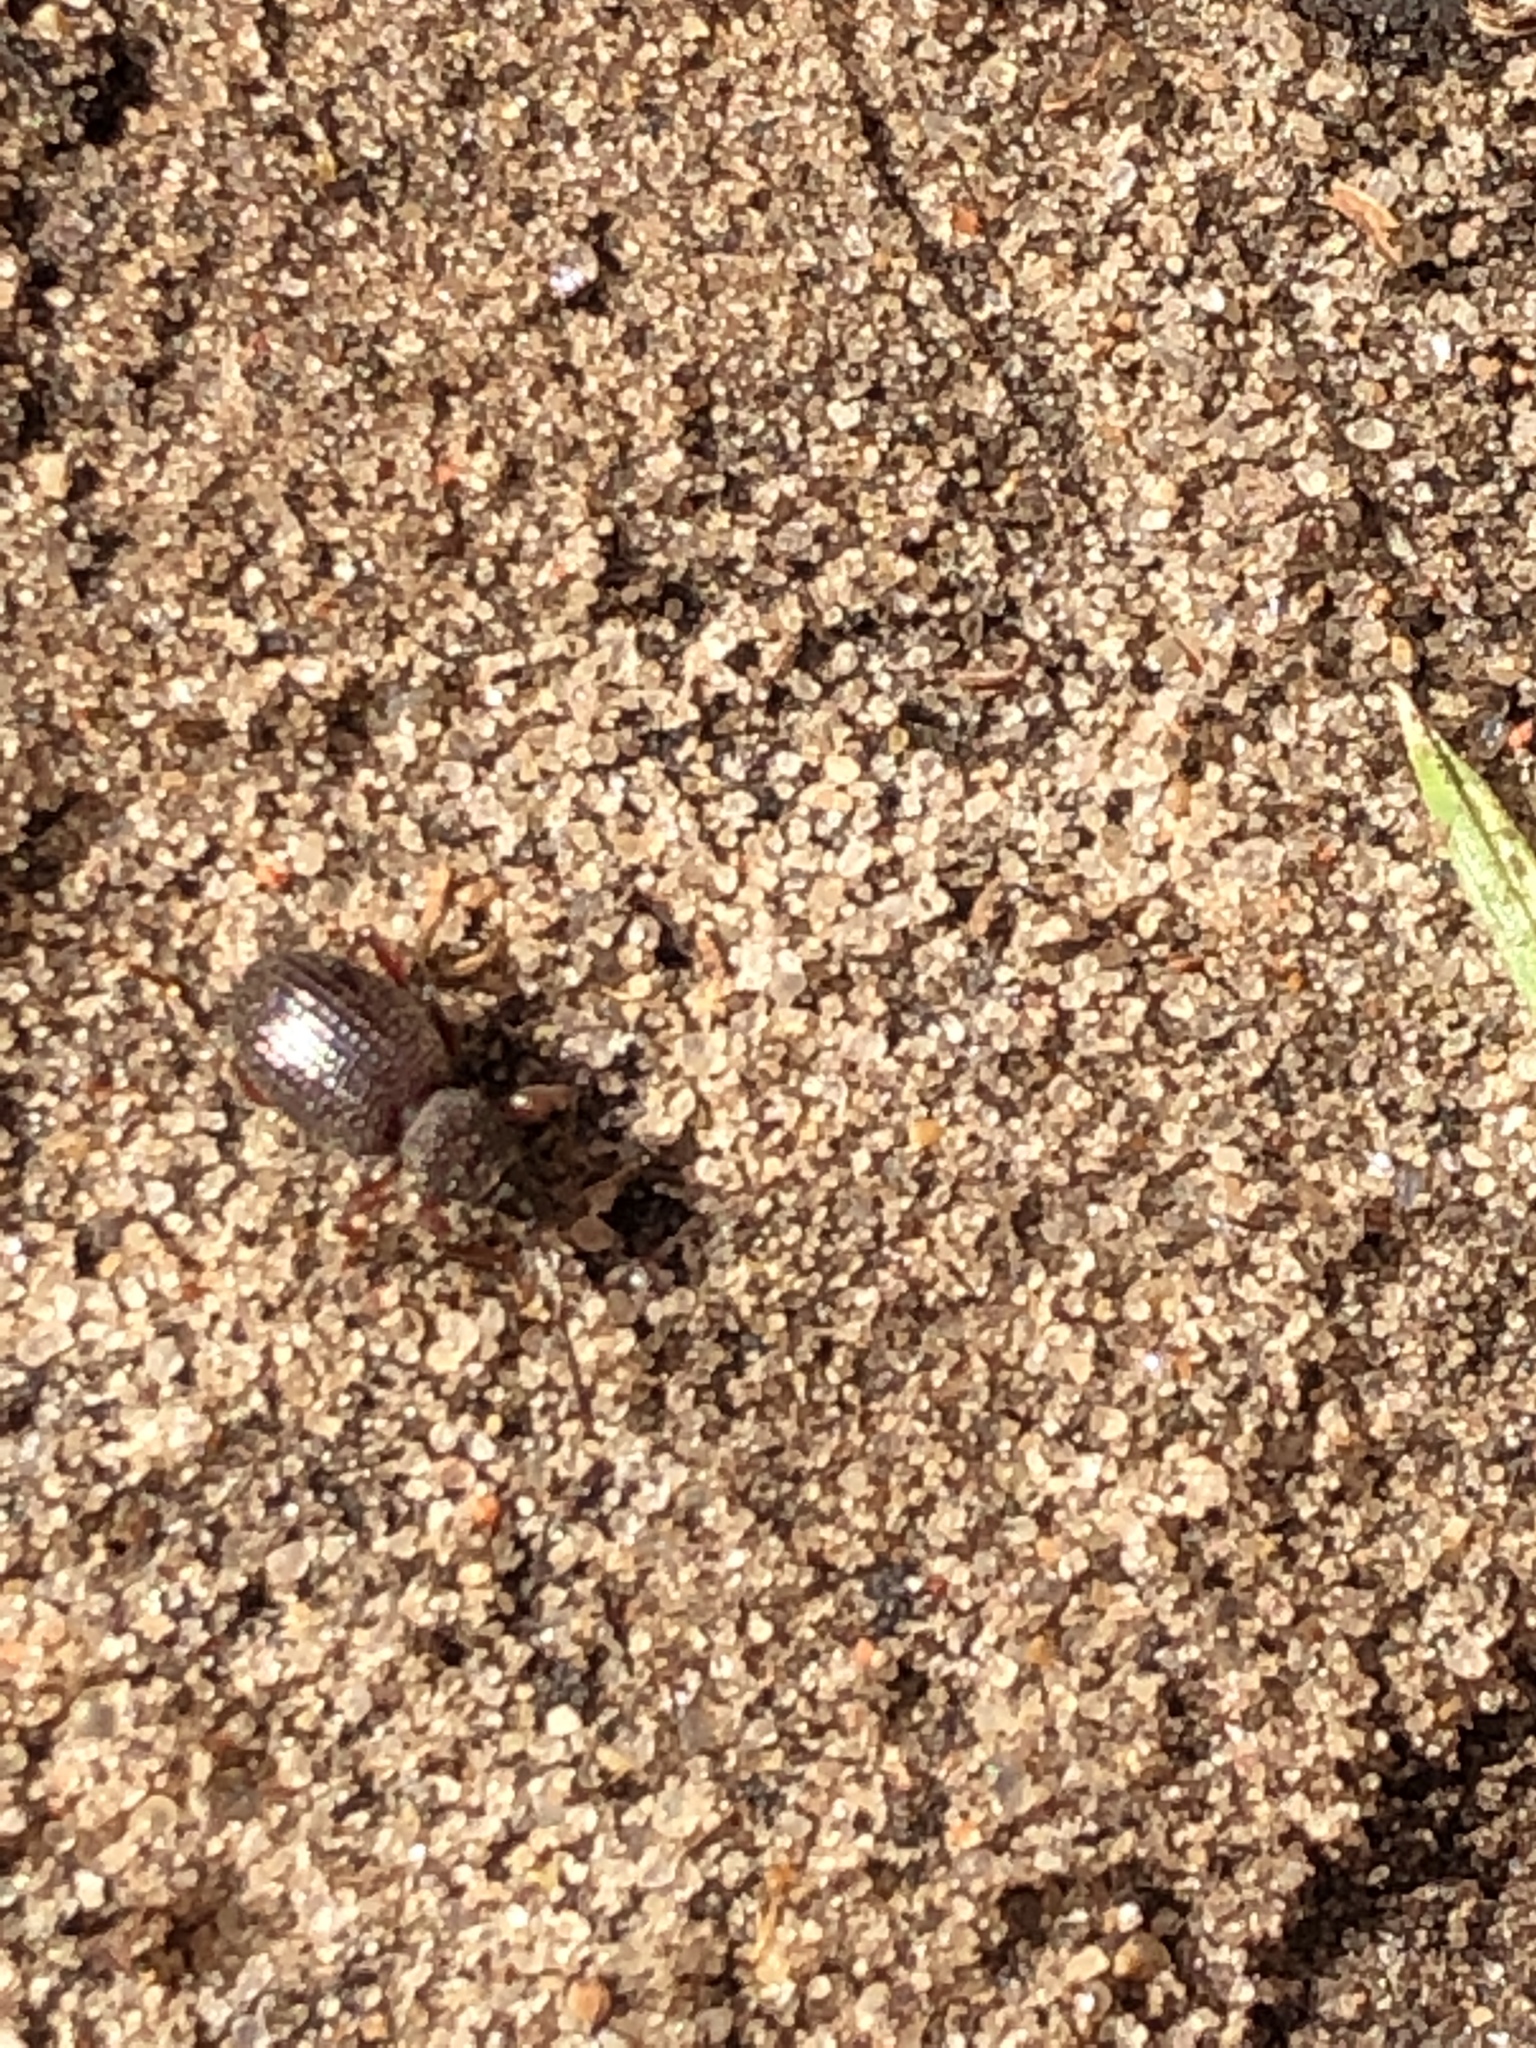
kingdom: Animalia
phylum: Arthropoda
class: Insecta
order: Coleoptera
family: Curculionidae
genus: Otiorhynchus
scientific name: Otiorhynchus ovatus
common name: Strawberry root weevil
